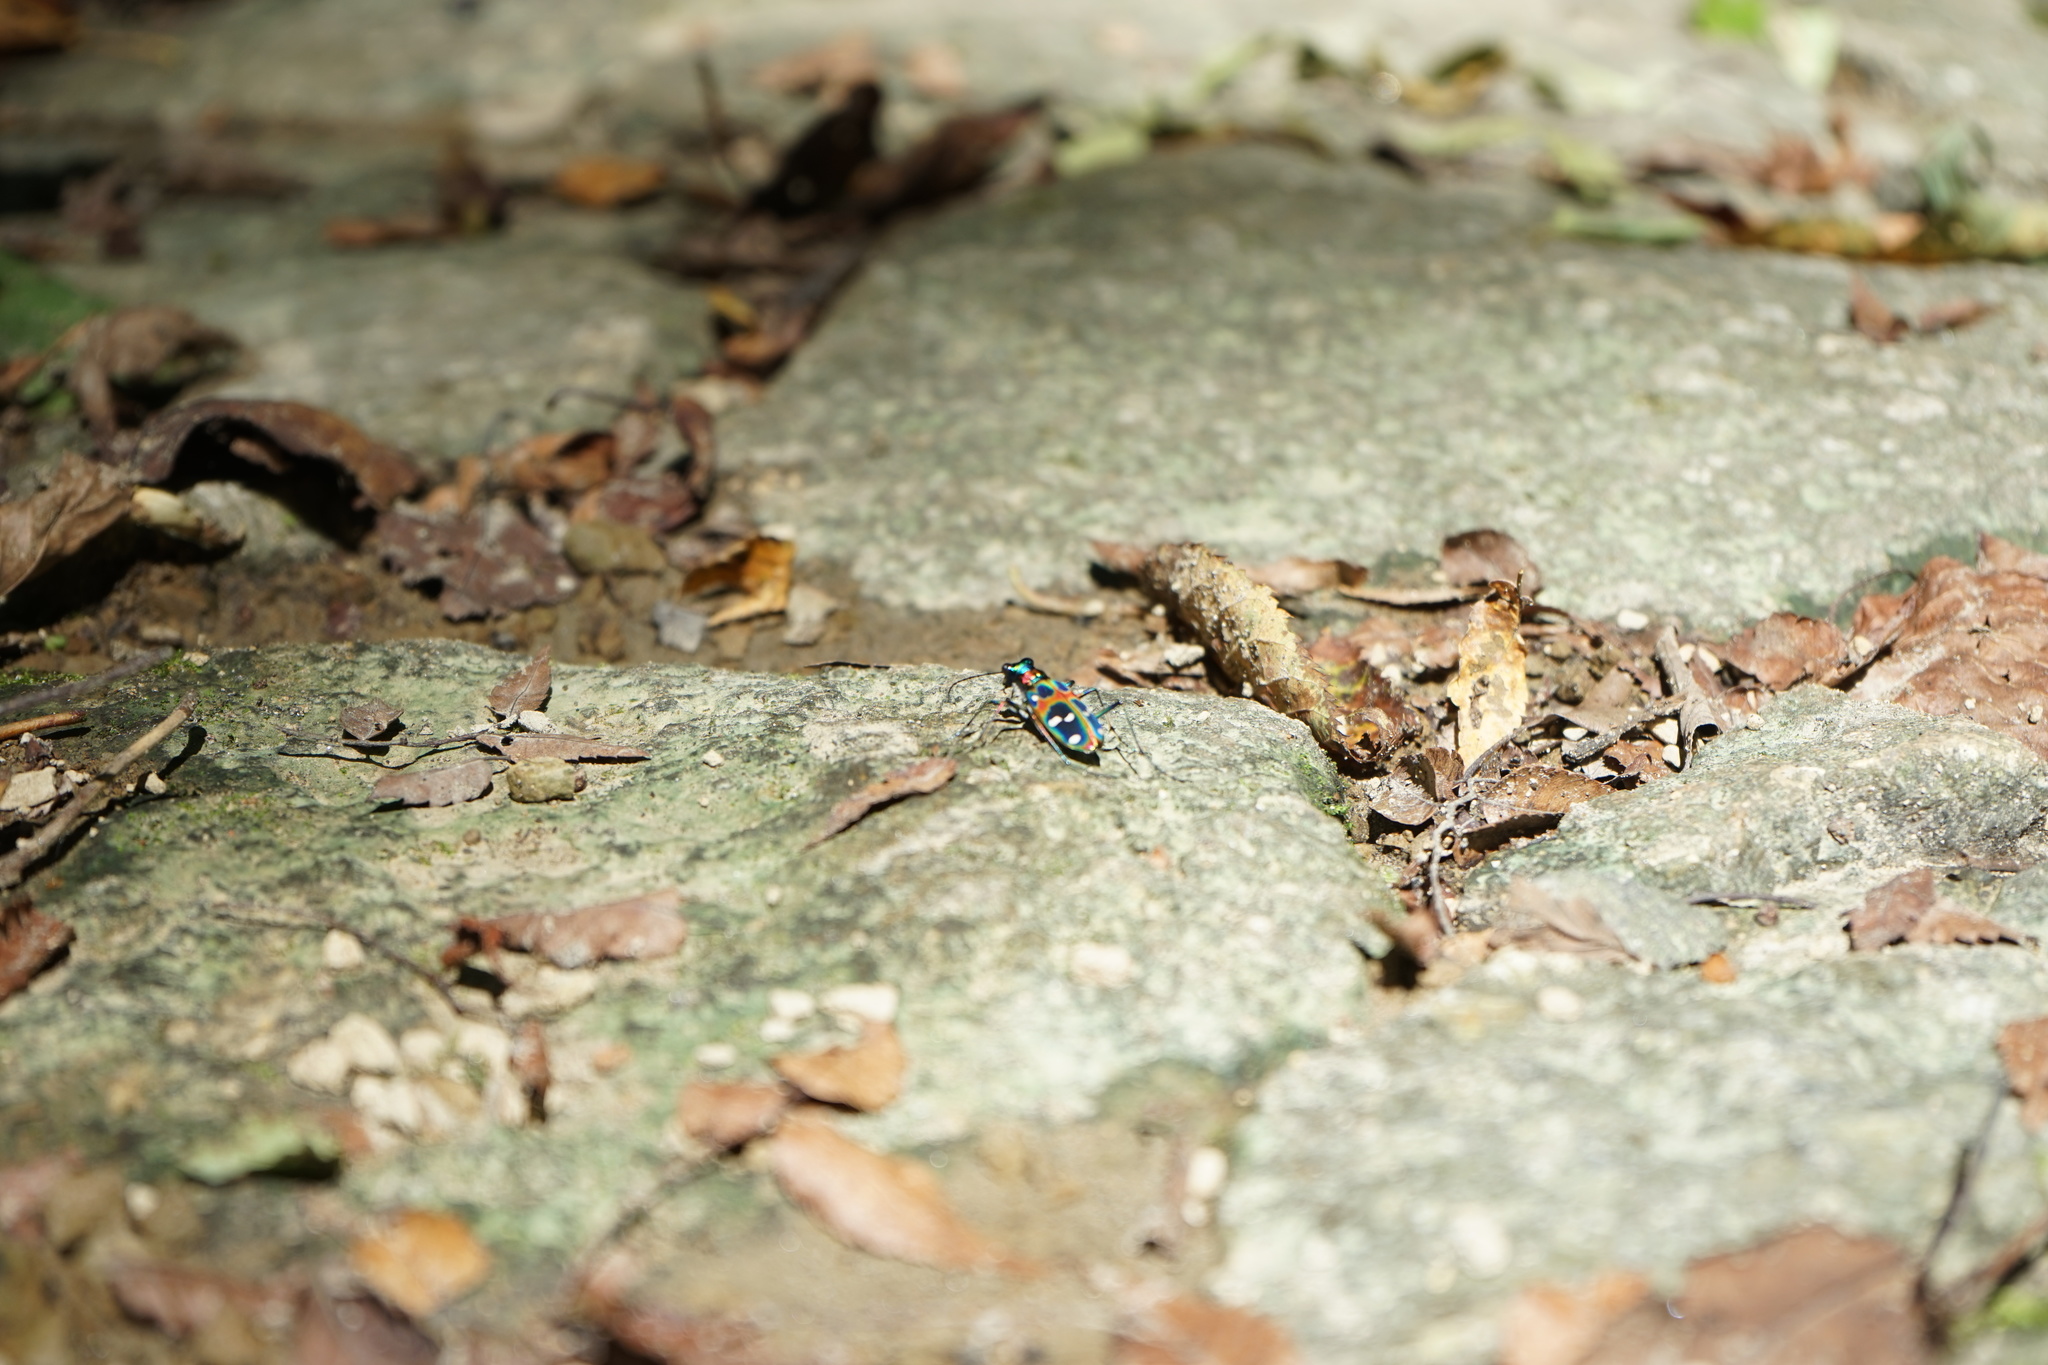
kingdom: Animalia
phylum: Arthropoda
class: Insecta
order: Coleoptera
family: Carabidae
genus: Cicindela
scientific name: Cicindela chinensis
